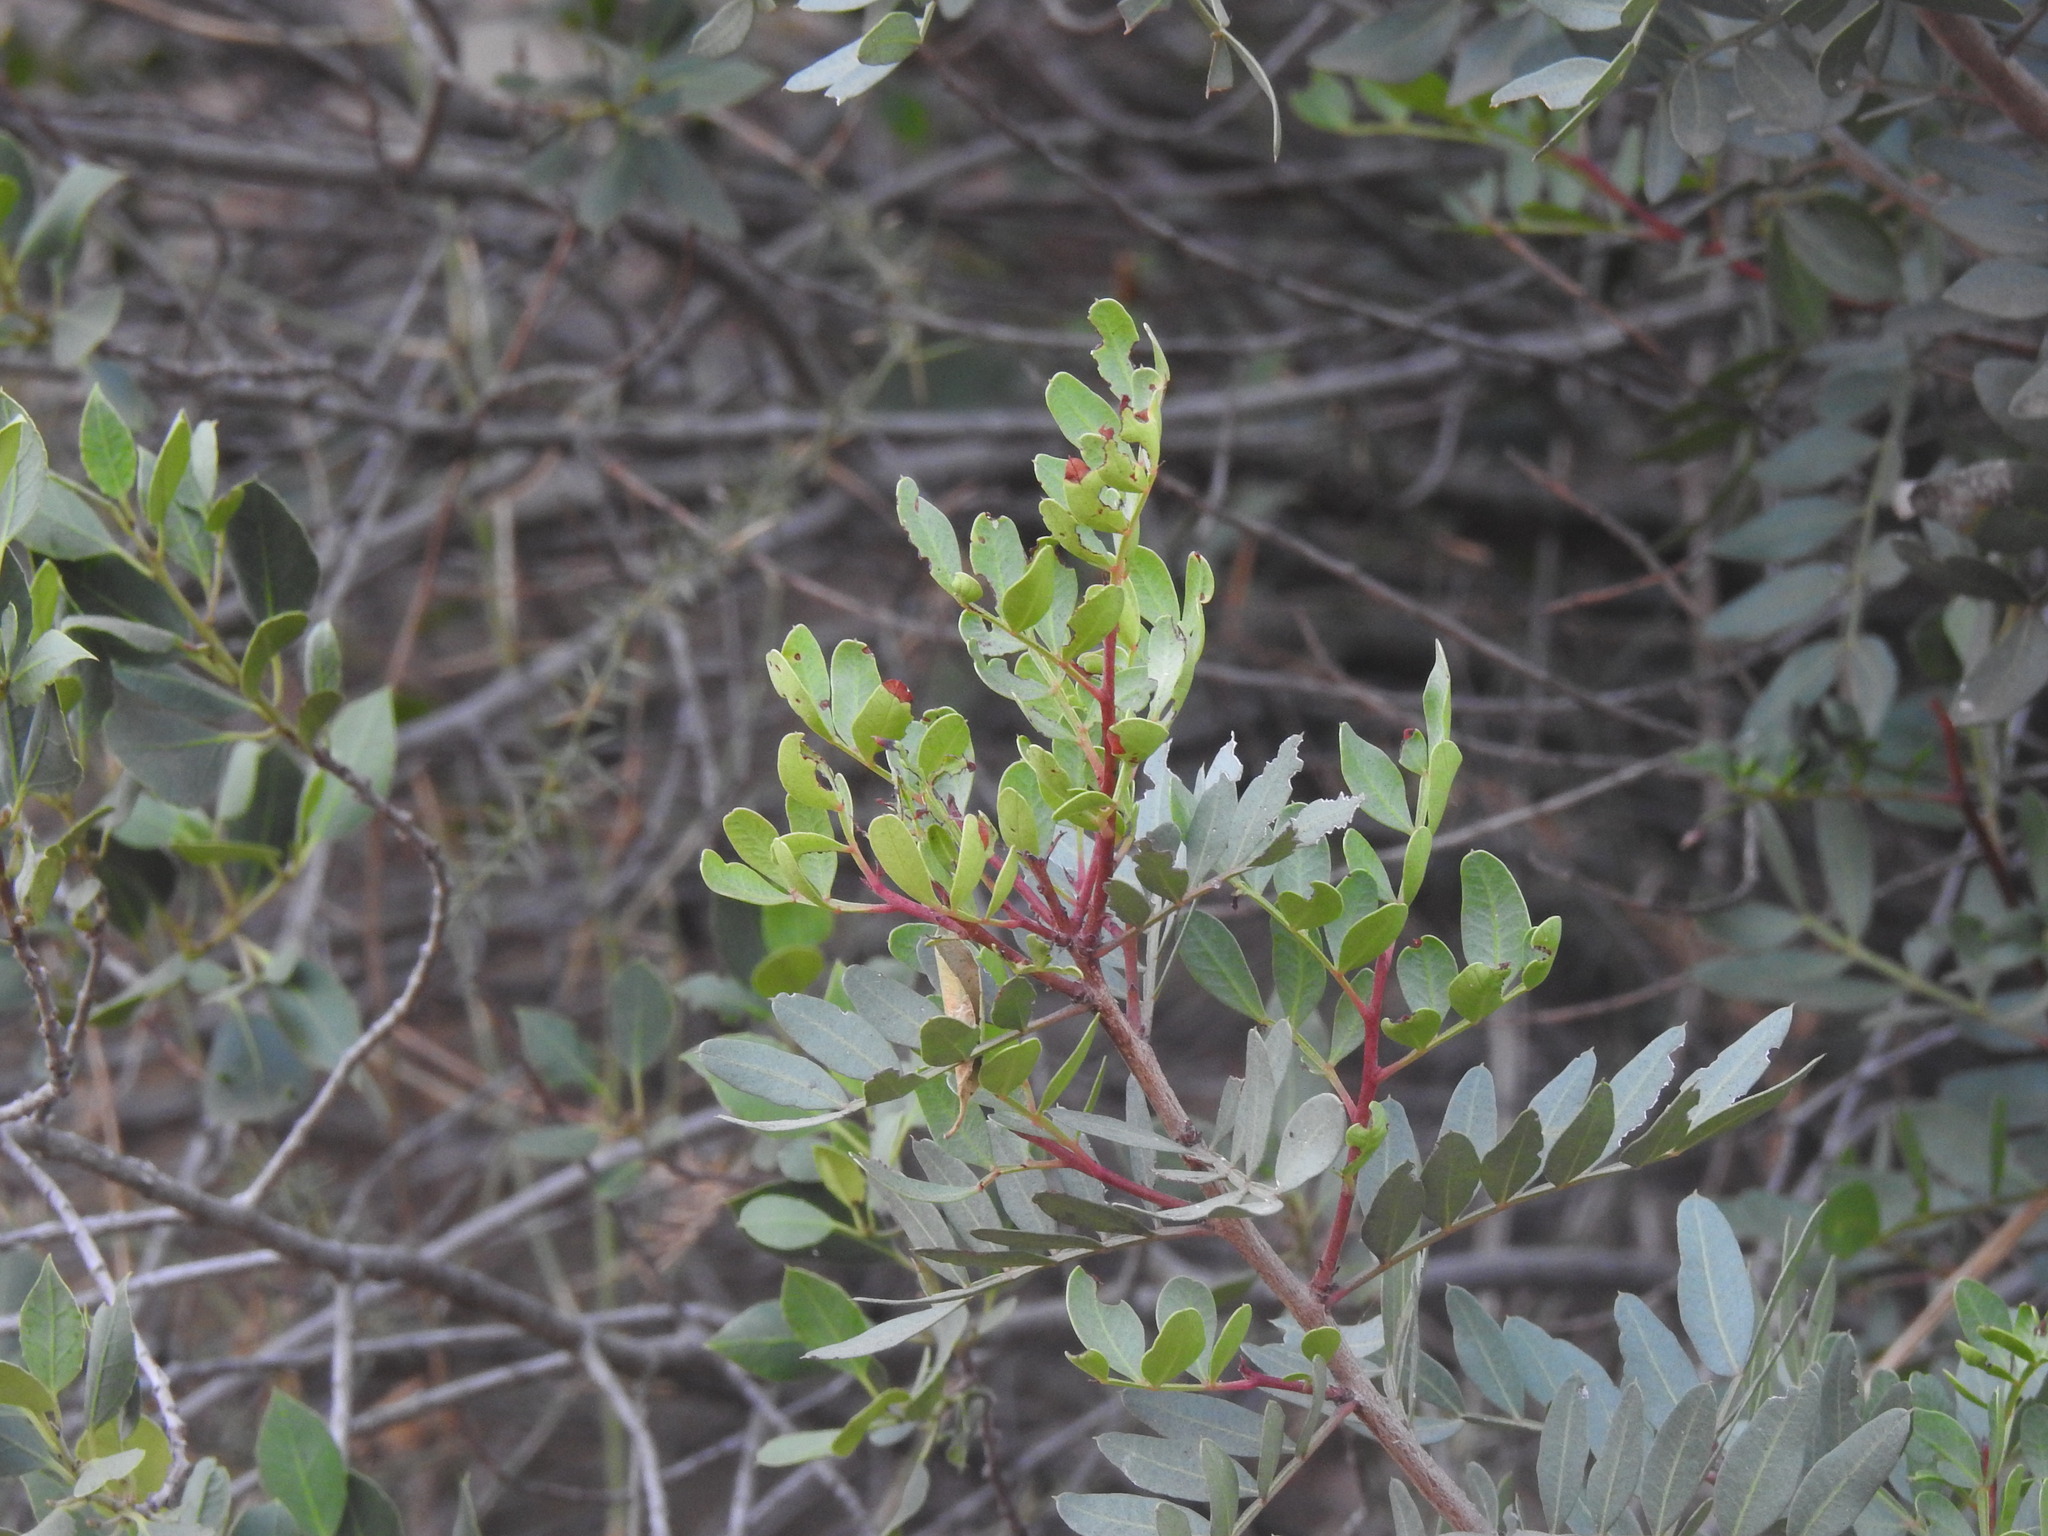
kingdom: Plantae
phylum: Tracheophyta
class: Magnoliopsida
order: Sapindales
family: Anacardiaceae
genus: Pistacia
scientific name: Pistacia lentiscus
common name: Lentisk
